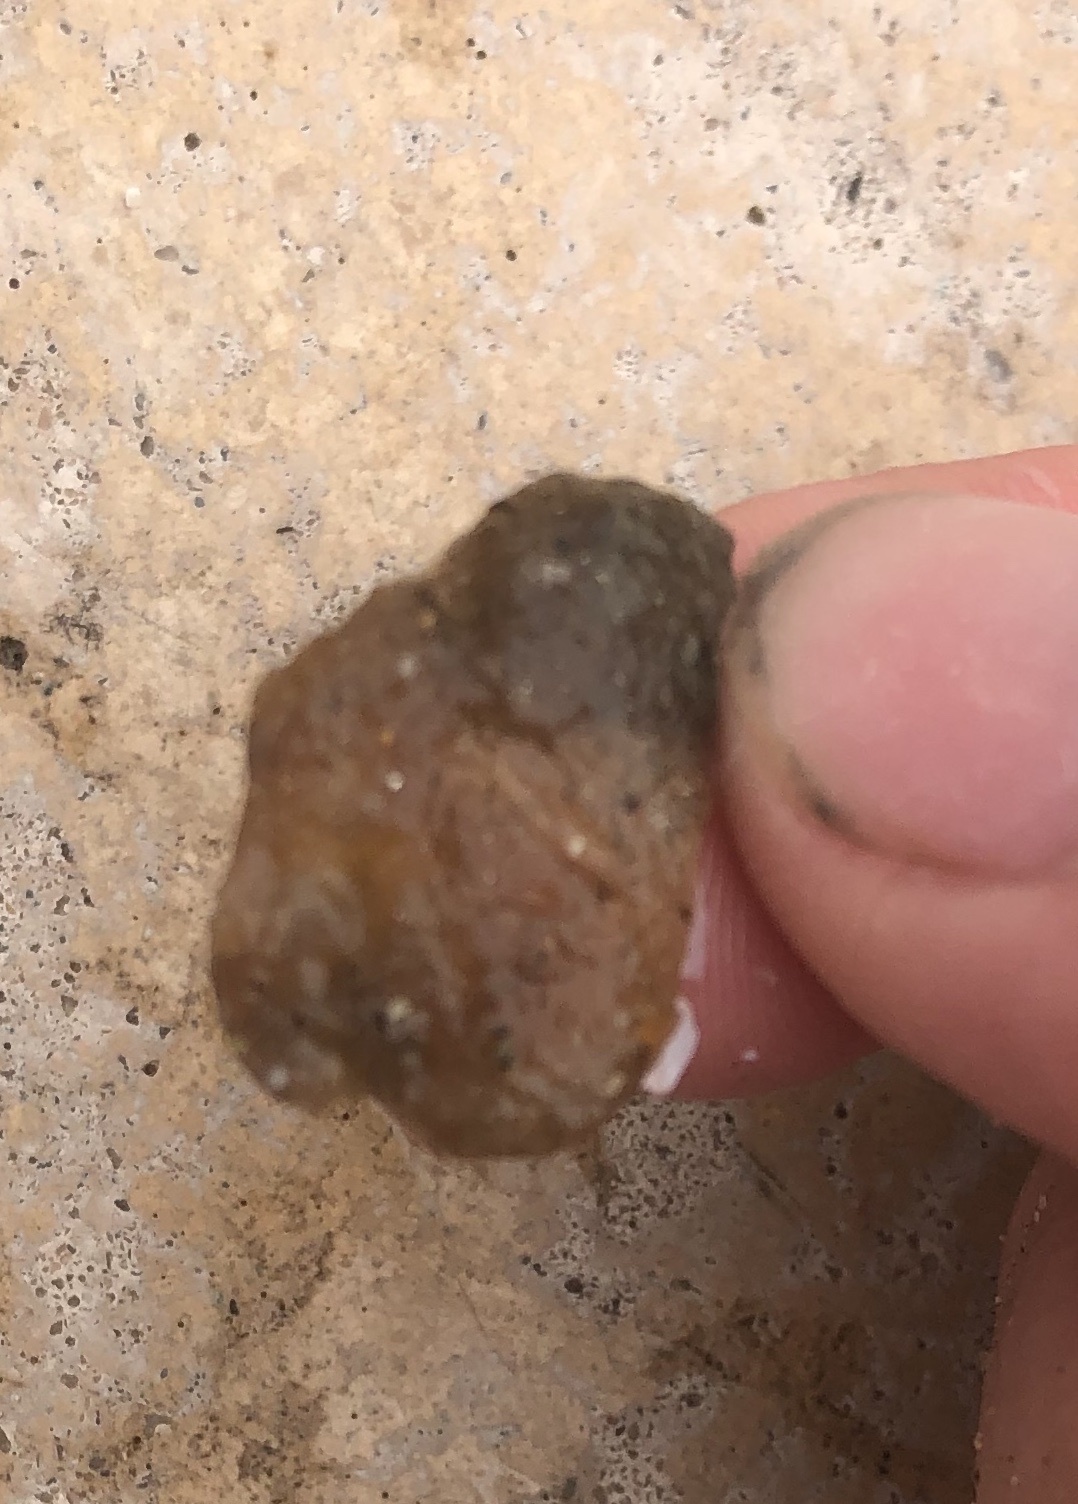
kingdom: Animalia
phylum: Mollusca
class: Bivalvia
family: Lyonsiidae
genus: Mytilimeria
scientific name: Mytilimeria nuttalli
